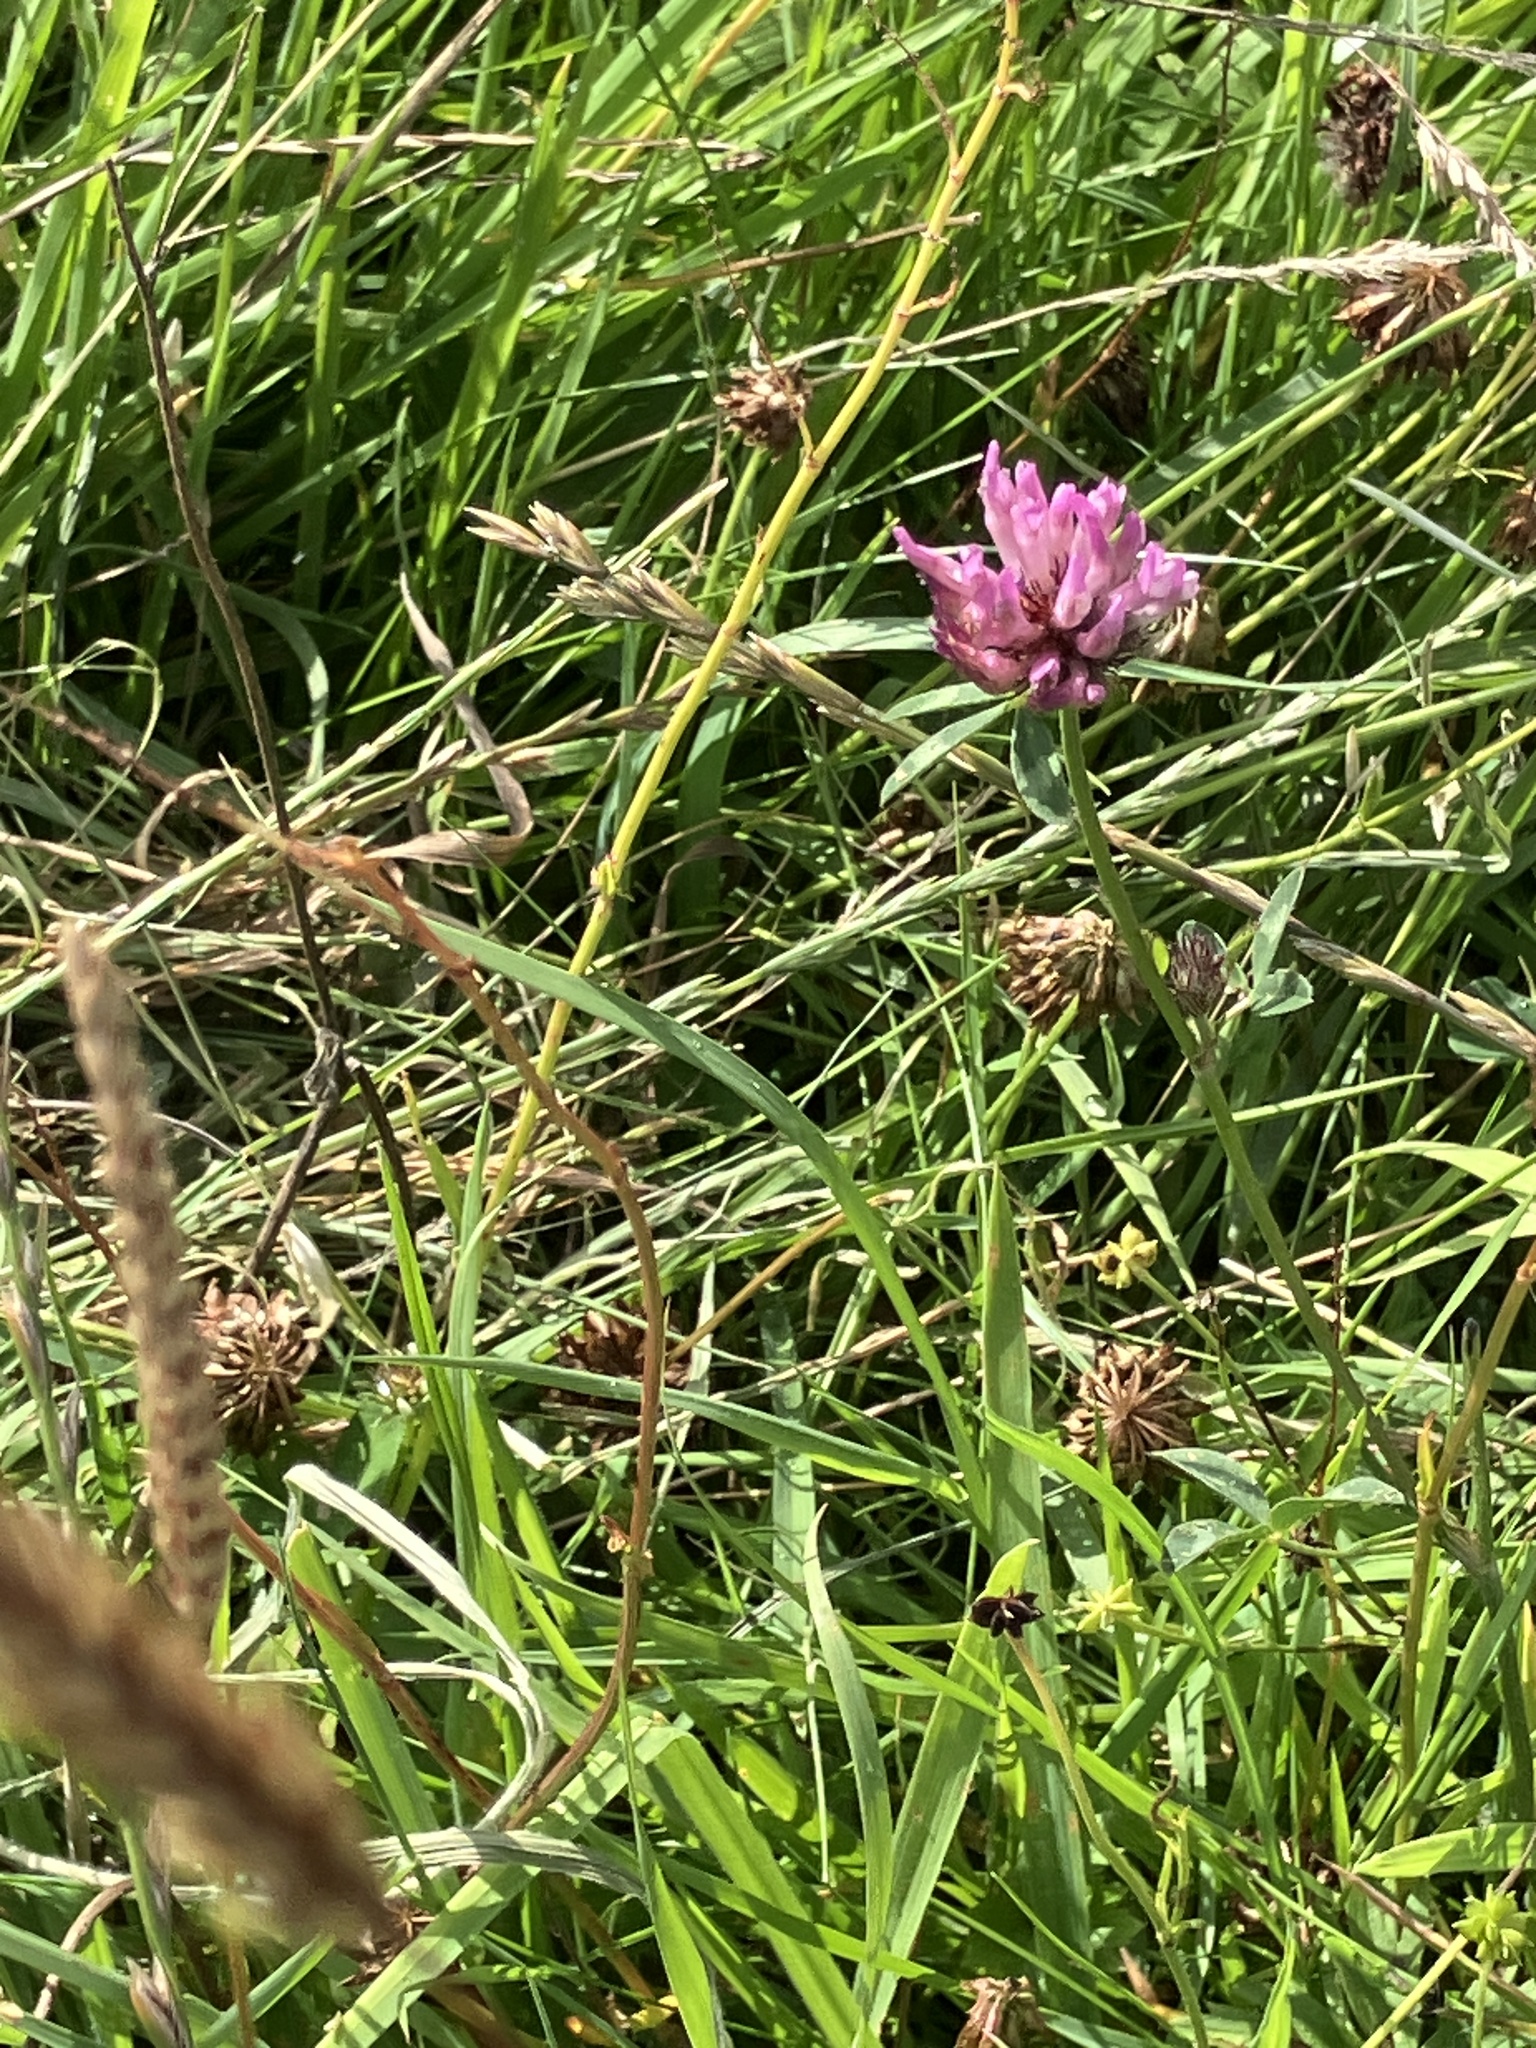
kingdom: Plantae
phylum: Tracheophyta
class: Magnoliopsida
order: Fabales
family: Fabaceae
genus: Trifolium
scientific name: Trifolium pratense
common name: Red clover
